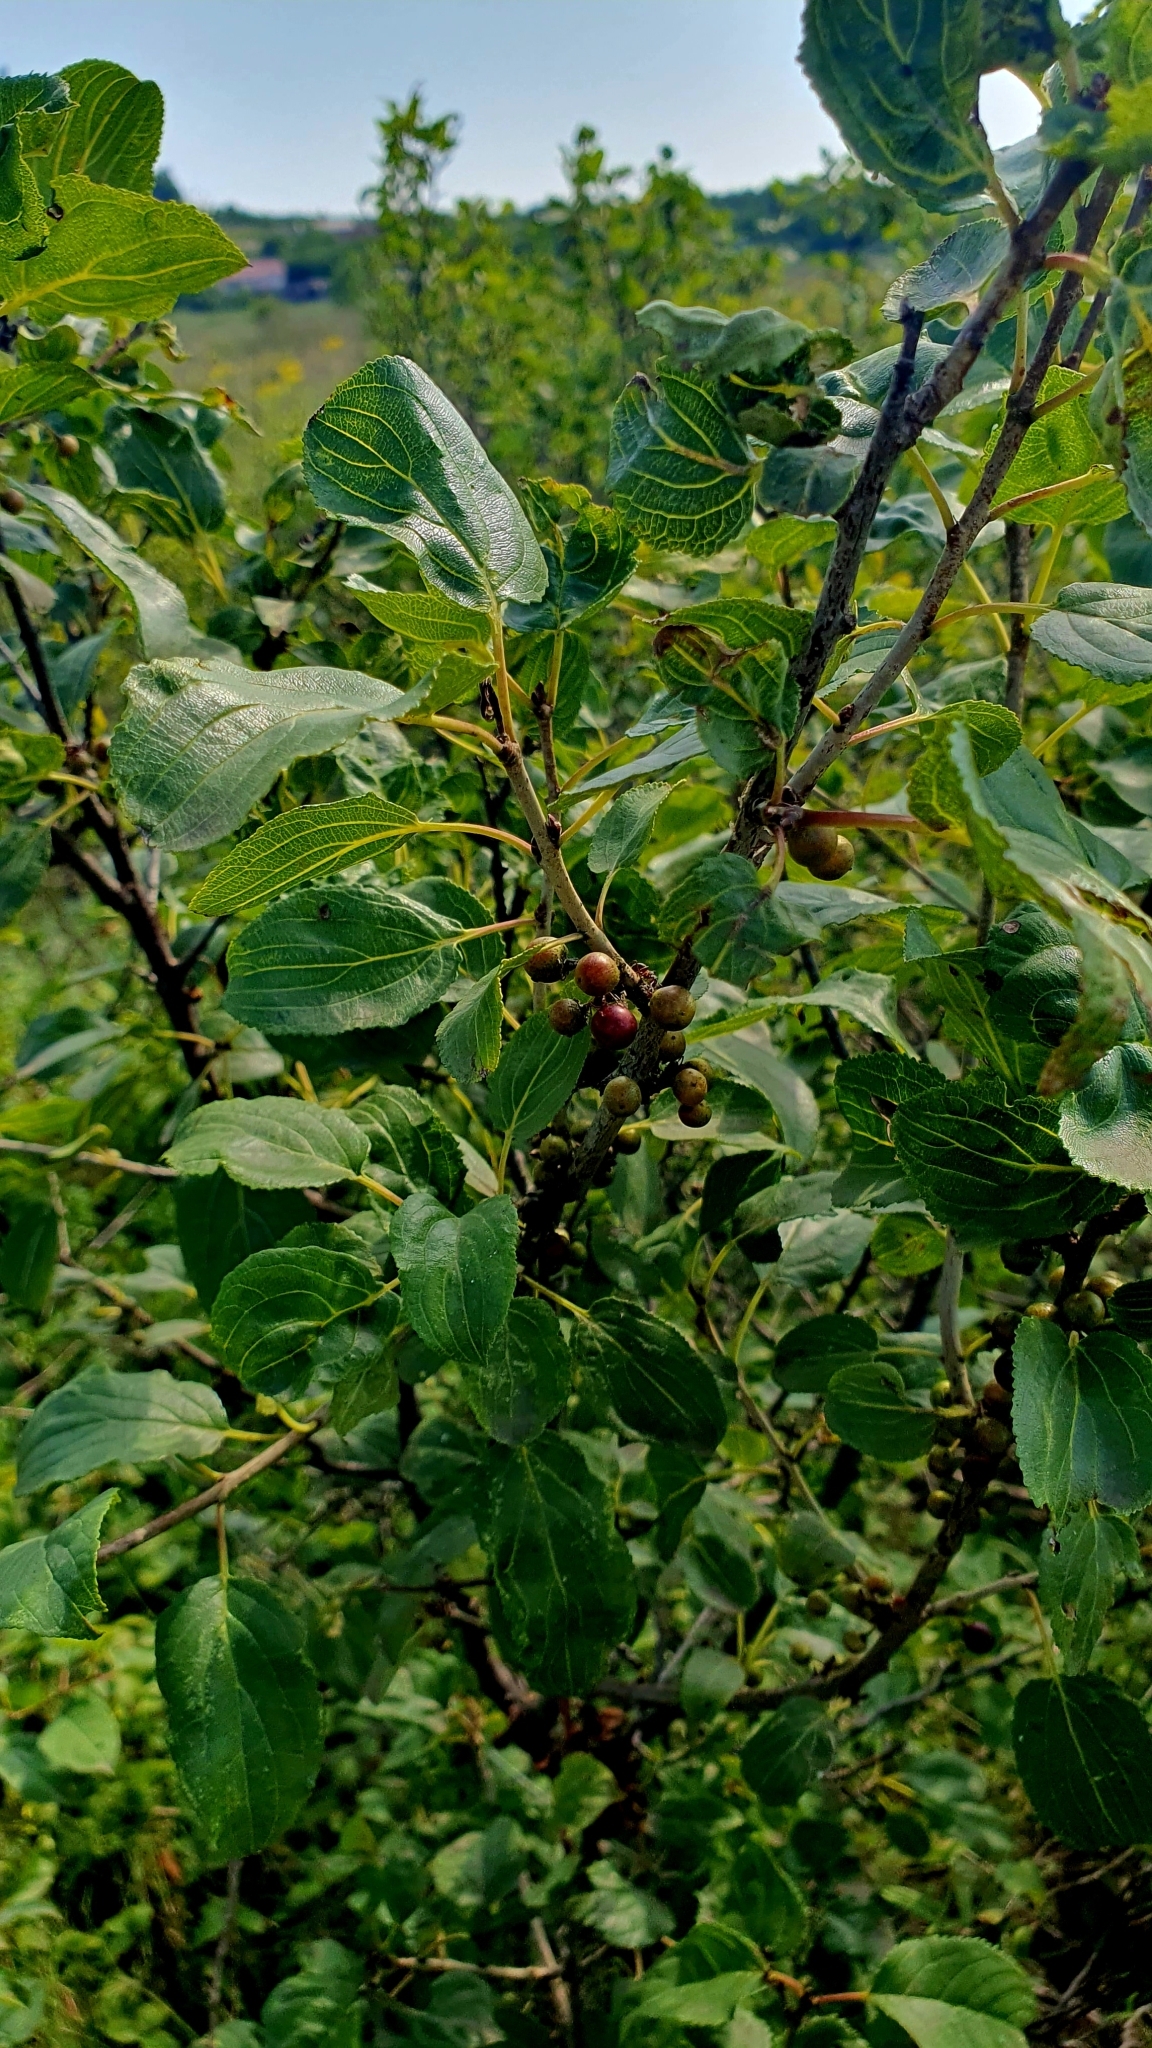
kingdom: Plantae
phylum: Tracheophyta
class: Magnoliopsida
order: Rosales
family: Rhamnaceae
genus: Rhamnus
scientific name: Rhamnus cathartica
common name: Common buckthorn
